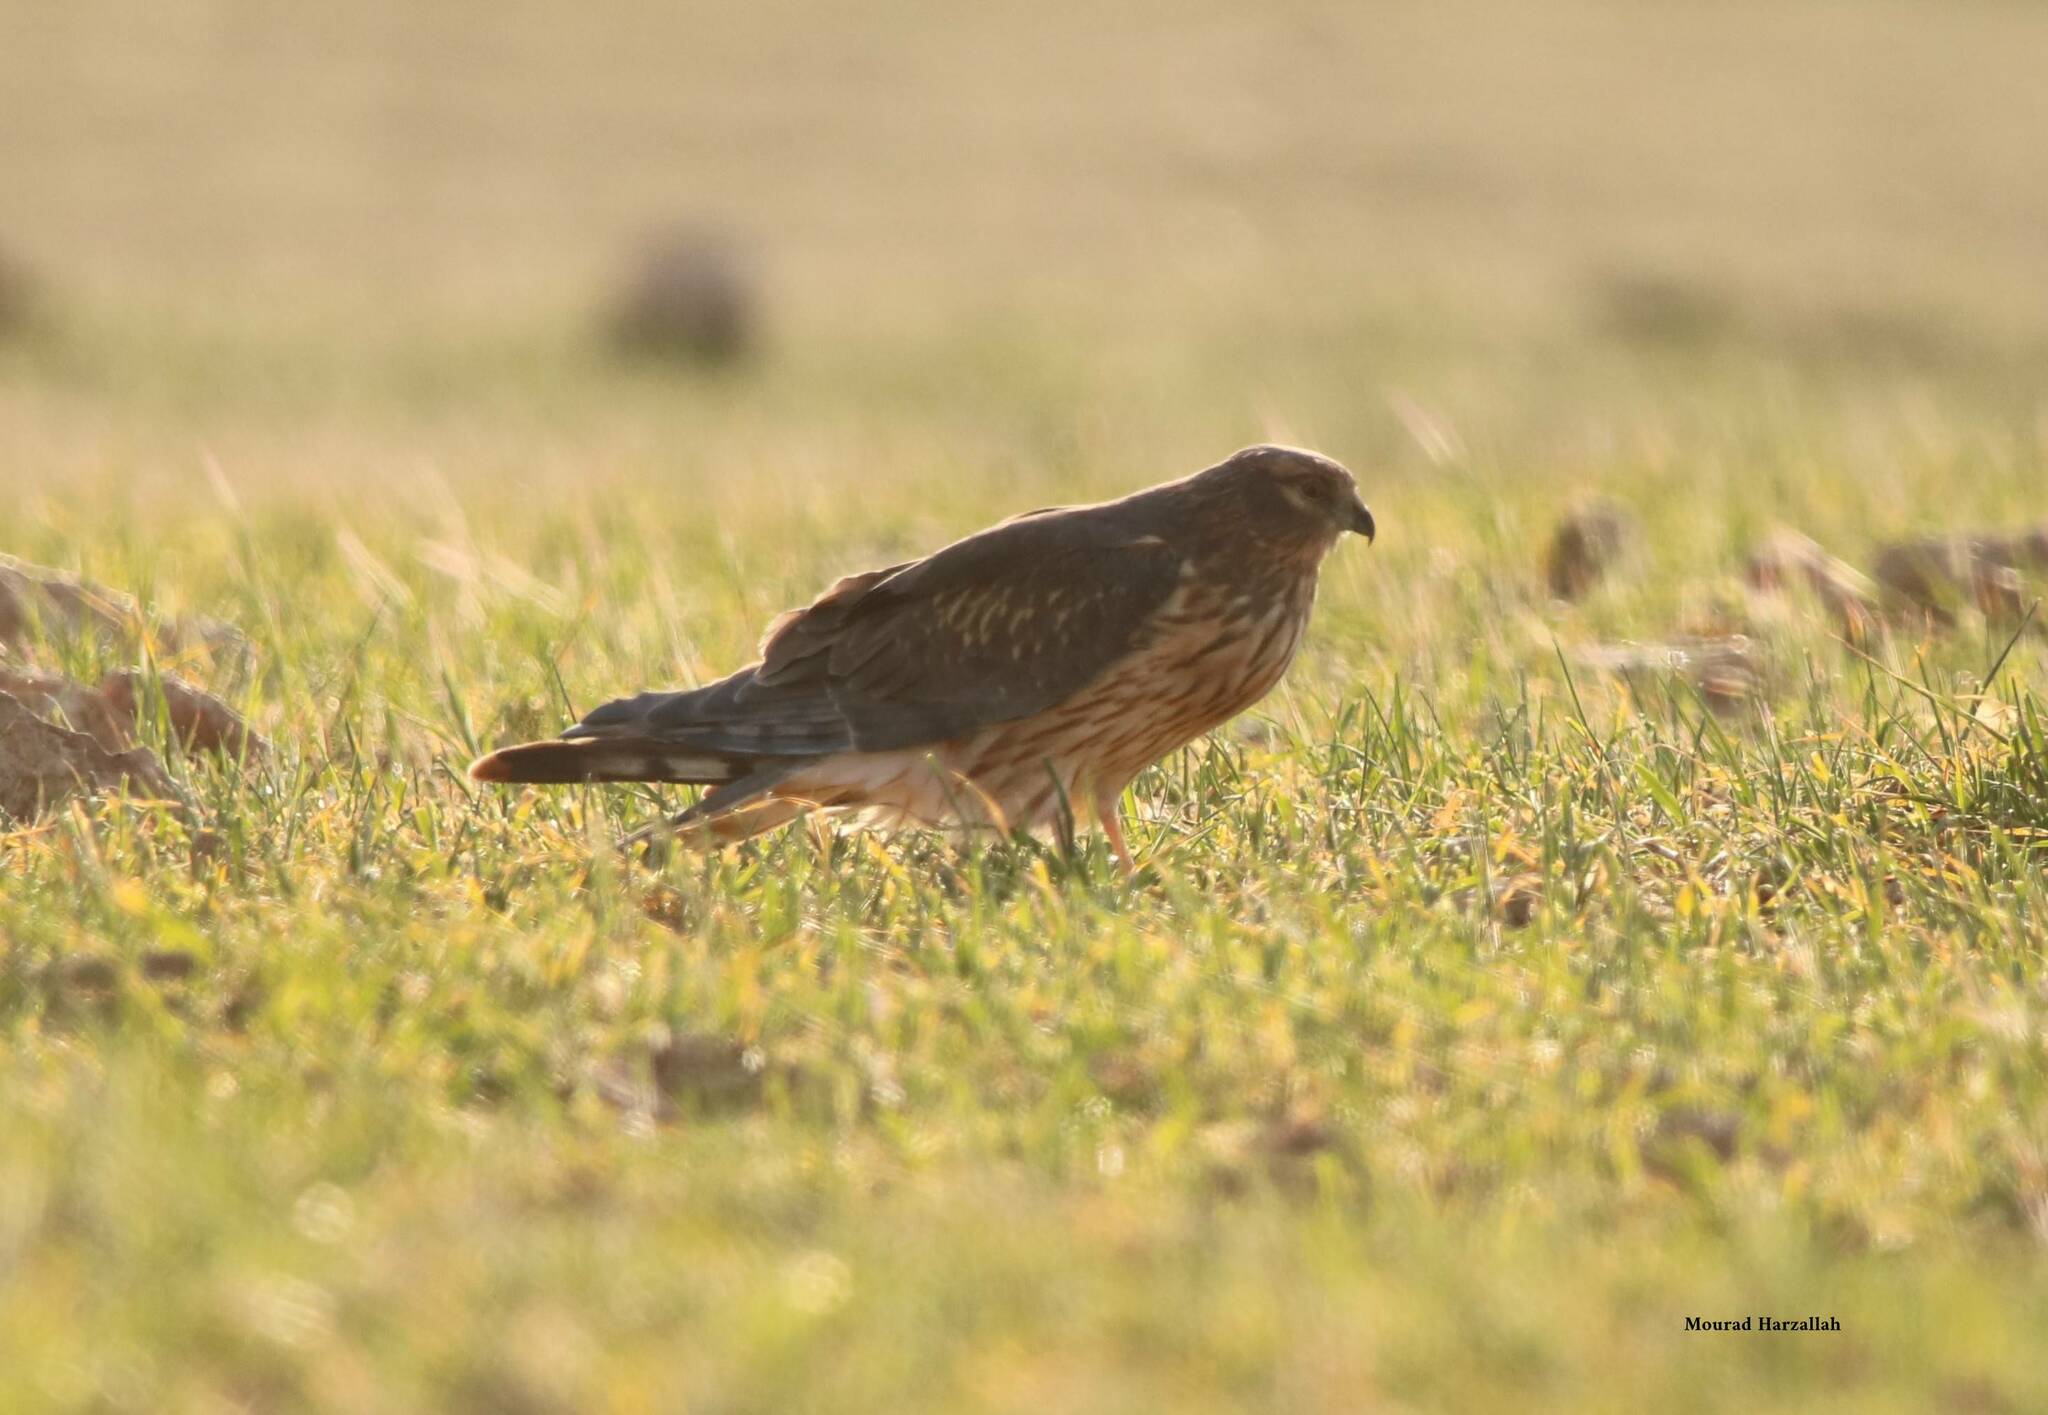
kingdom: Animalia
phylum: Chordata
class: Aves
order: Accipitriformes
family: Accipitridae
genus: Circus
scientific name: Circus pygargus
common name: Montagu's harrier
